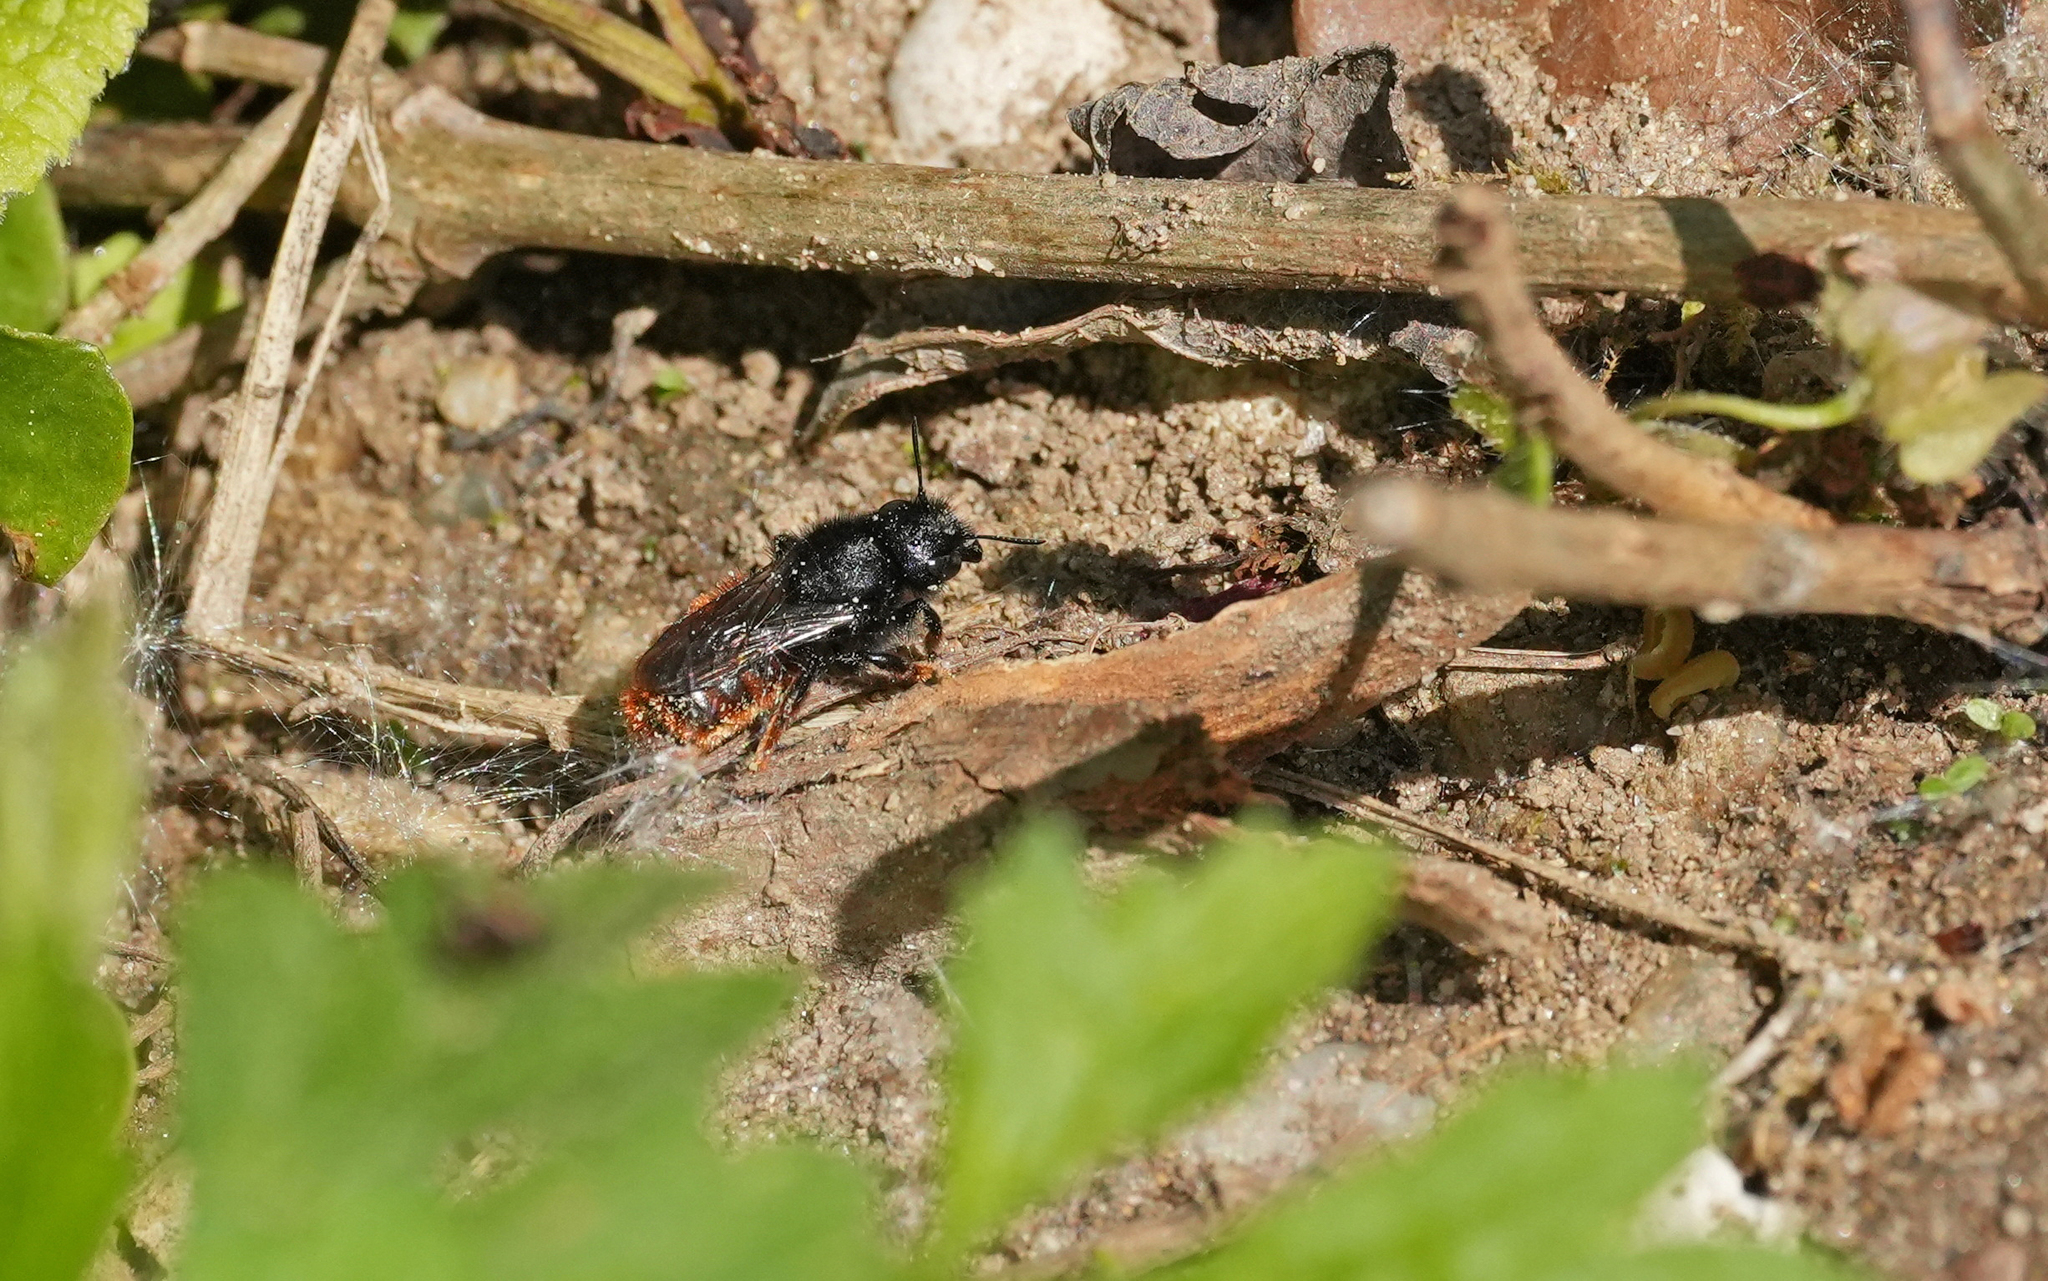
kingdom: Animalia
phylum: Arthropoda
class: Insecta
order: Hymenoptera
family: Megachilidae
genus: Osmia
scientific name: Osmia bicolor
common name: Red-tailed mason bee
